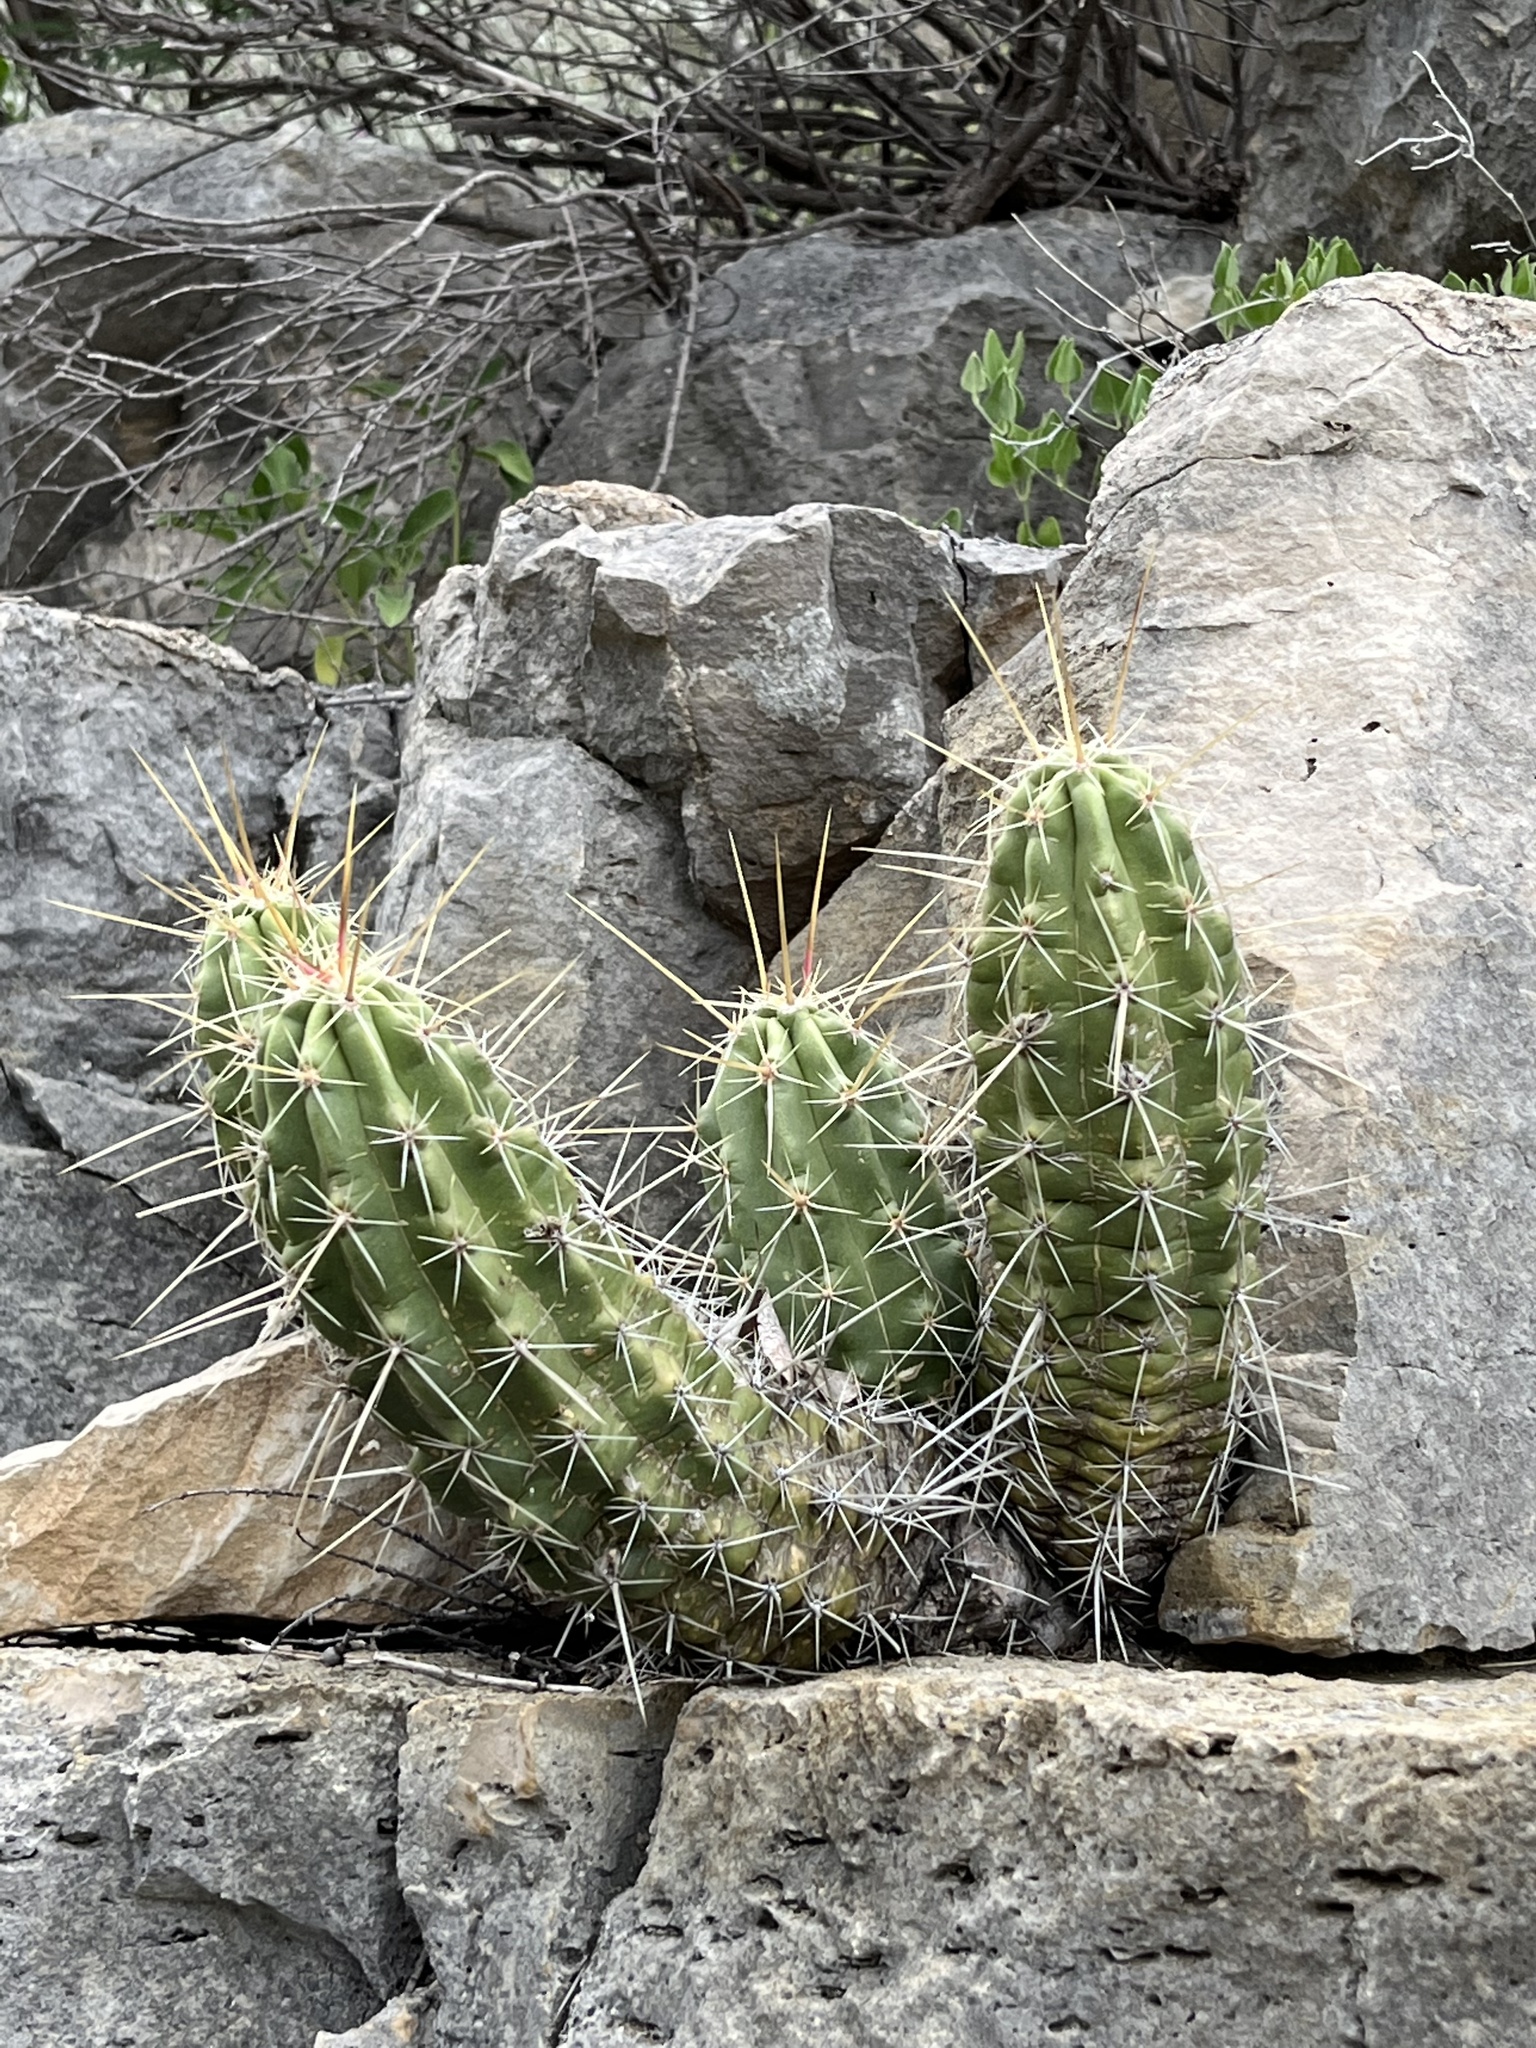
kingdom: Plantae
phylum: Tracheophyta
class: Magnoliopsida
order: Caryophyllales
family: Cactaceae
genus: Echinocereus
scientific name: Echinocereus enneacanthus
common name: Pitaya
